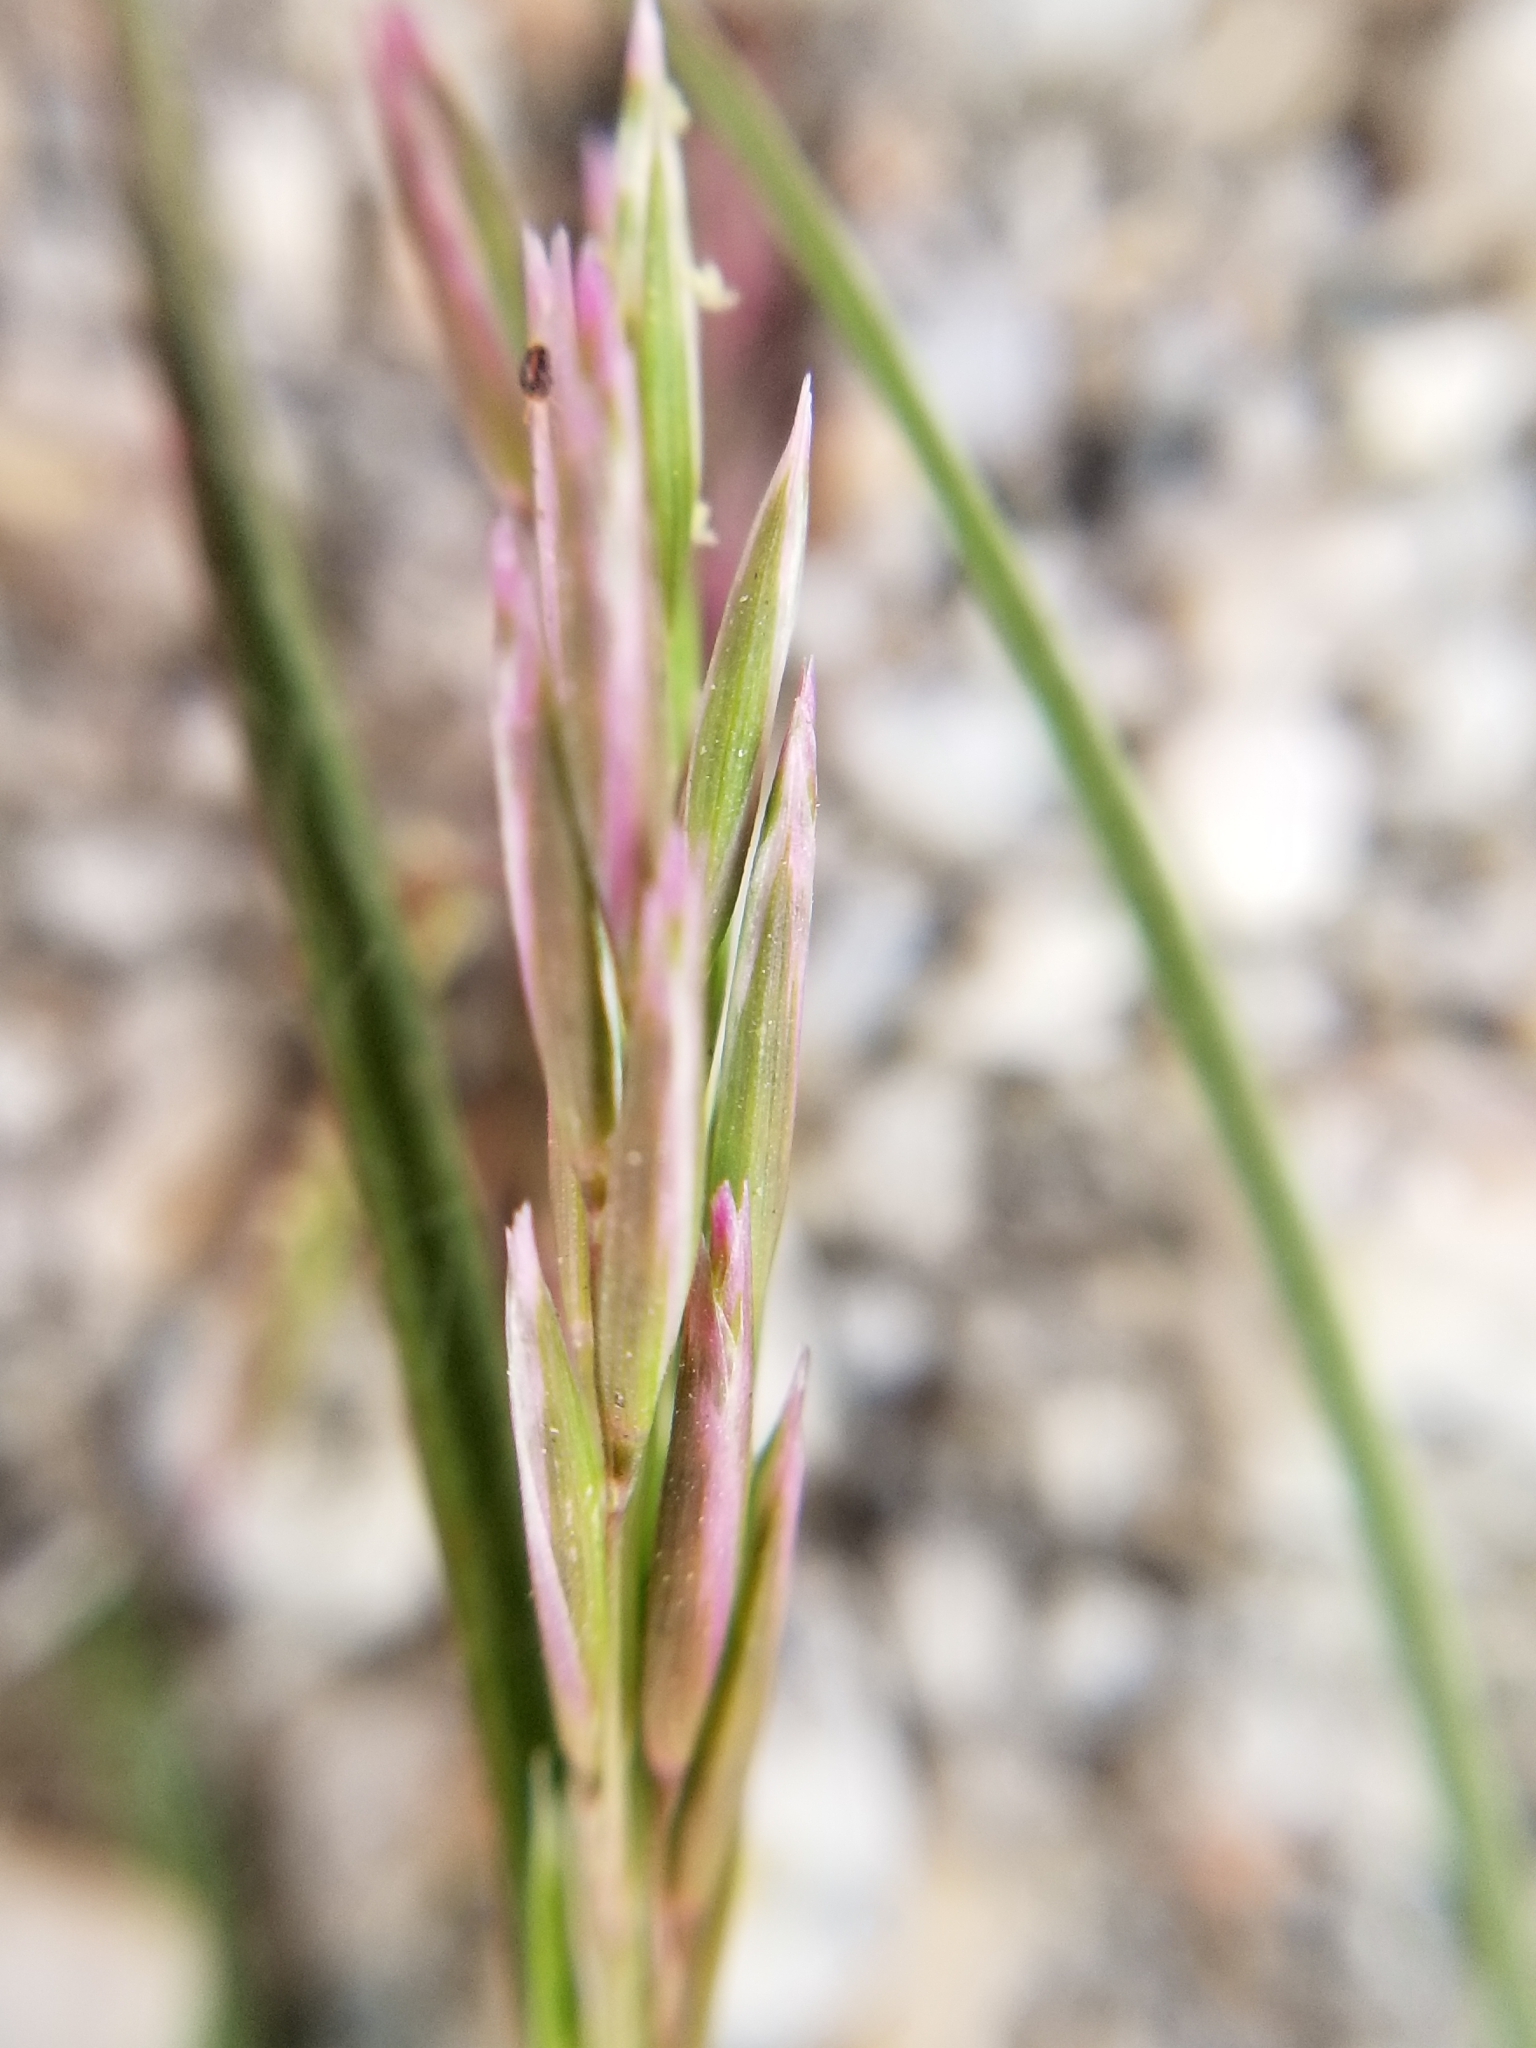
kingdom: Plantae
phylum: Tracheophyta
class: Liliopsida
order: Poales
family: Poaceae
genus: Schismus
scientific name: Schismus barbatus
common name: Kelch-grass
